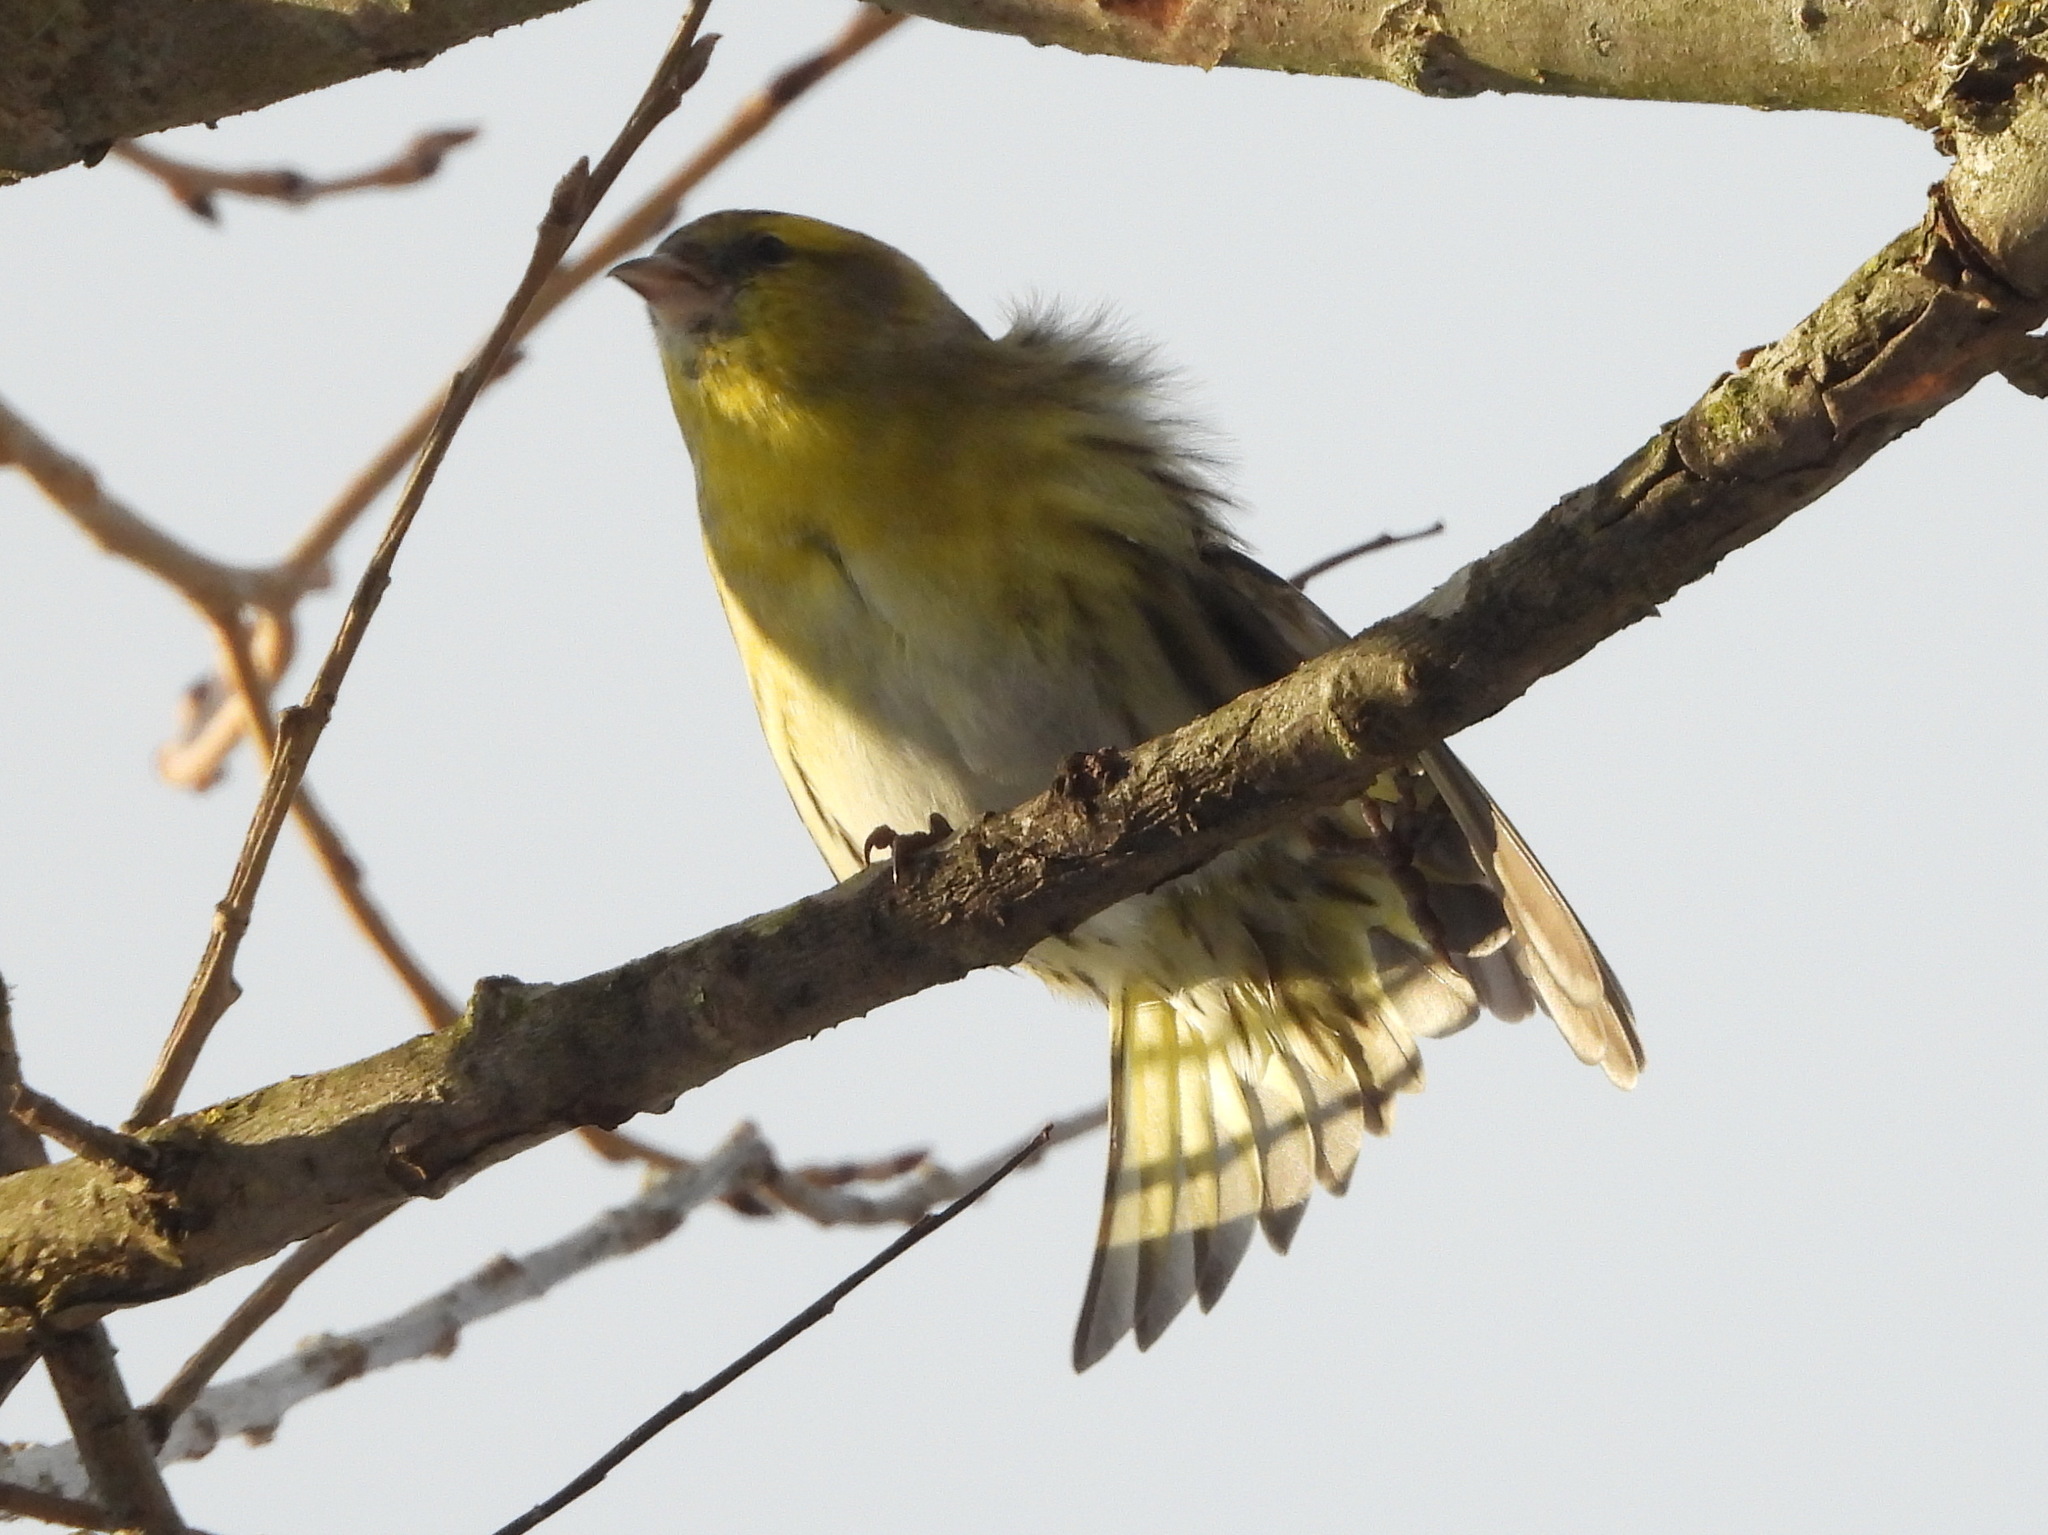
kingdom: Animalia
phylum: Chordata
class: Aves
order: Passeriformes
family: Fringillidae
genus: Spinus
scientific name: Spinus spinus
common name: Eurasian siskin
